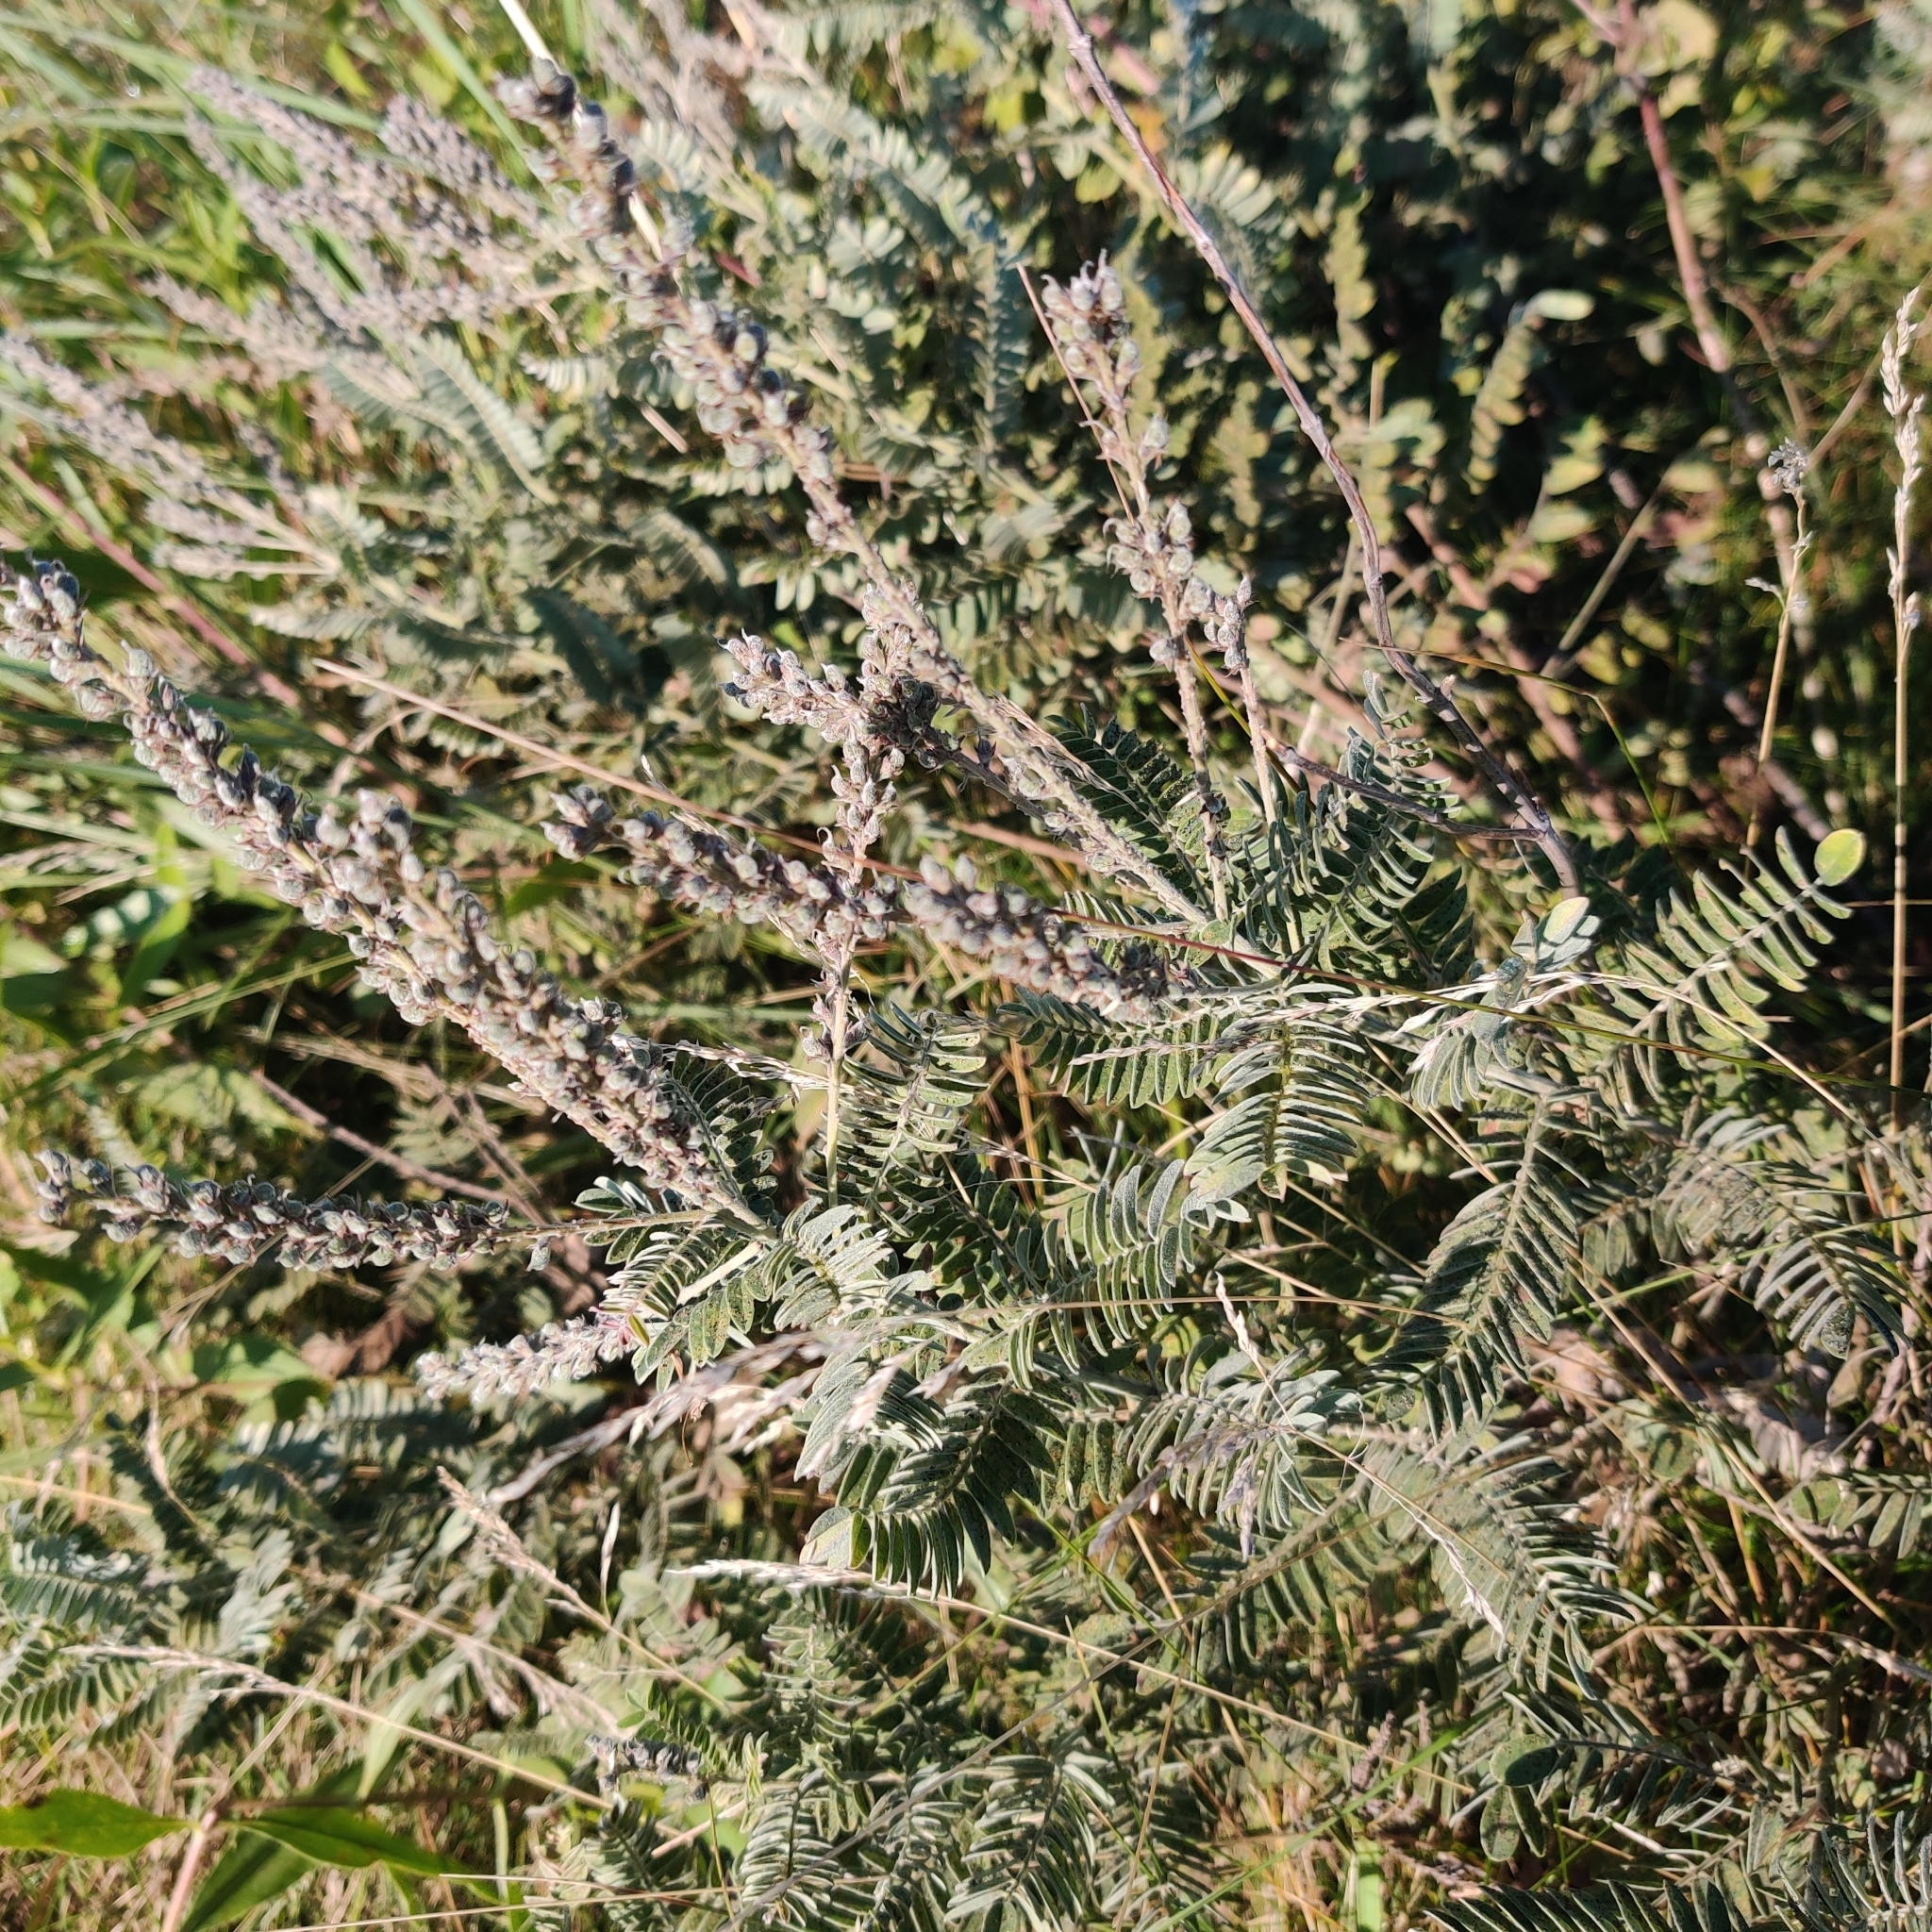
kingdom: Plantae
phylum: Tracheophyta
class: Magnoliopsida
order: Fabales
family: Fabaceae
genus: Amorpha
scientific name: Amorpha canescens
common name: Leadplant
